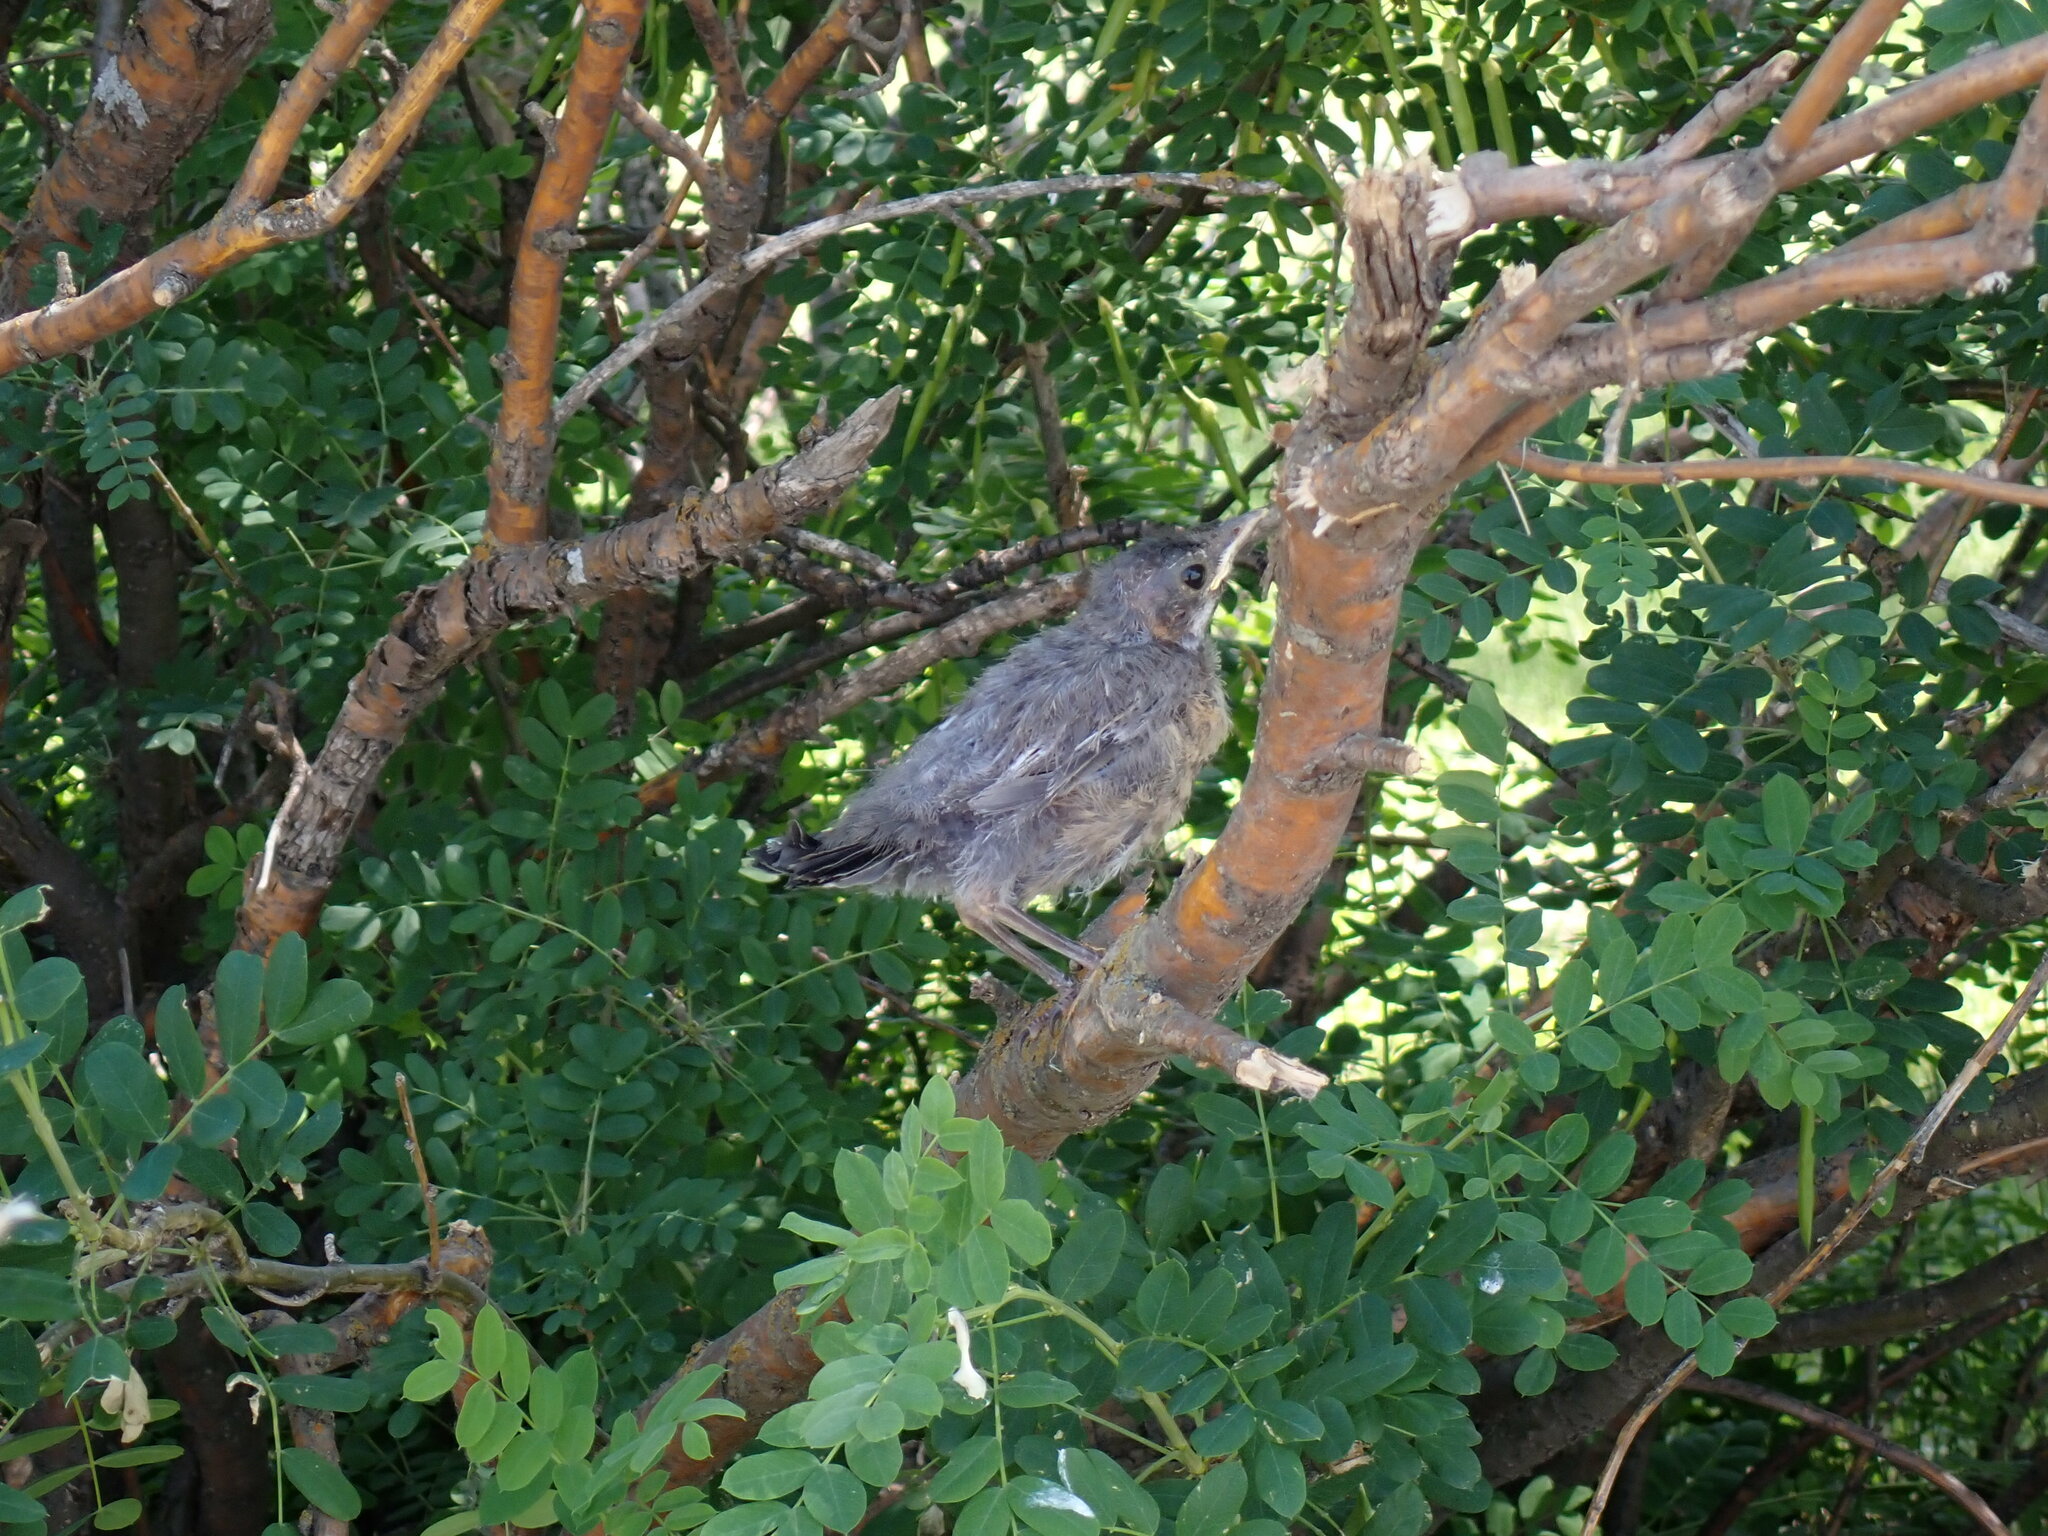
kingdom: Animalia
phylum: Chordata
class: Aves
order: Passeriformes
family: Turdidae
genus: Turdus
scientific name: Turdus migratorius
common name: American robin
